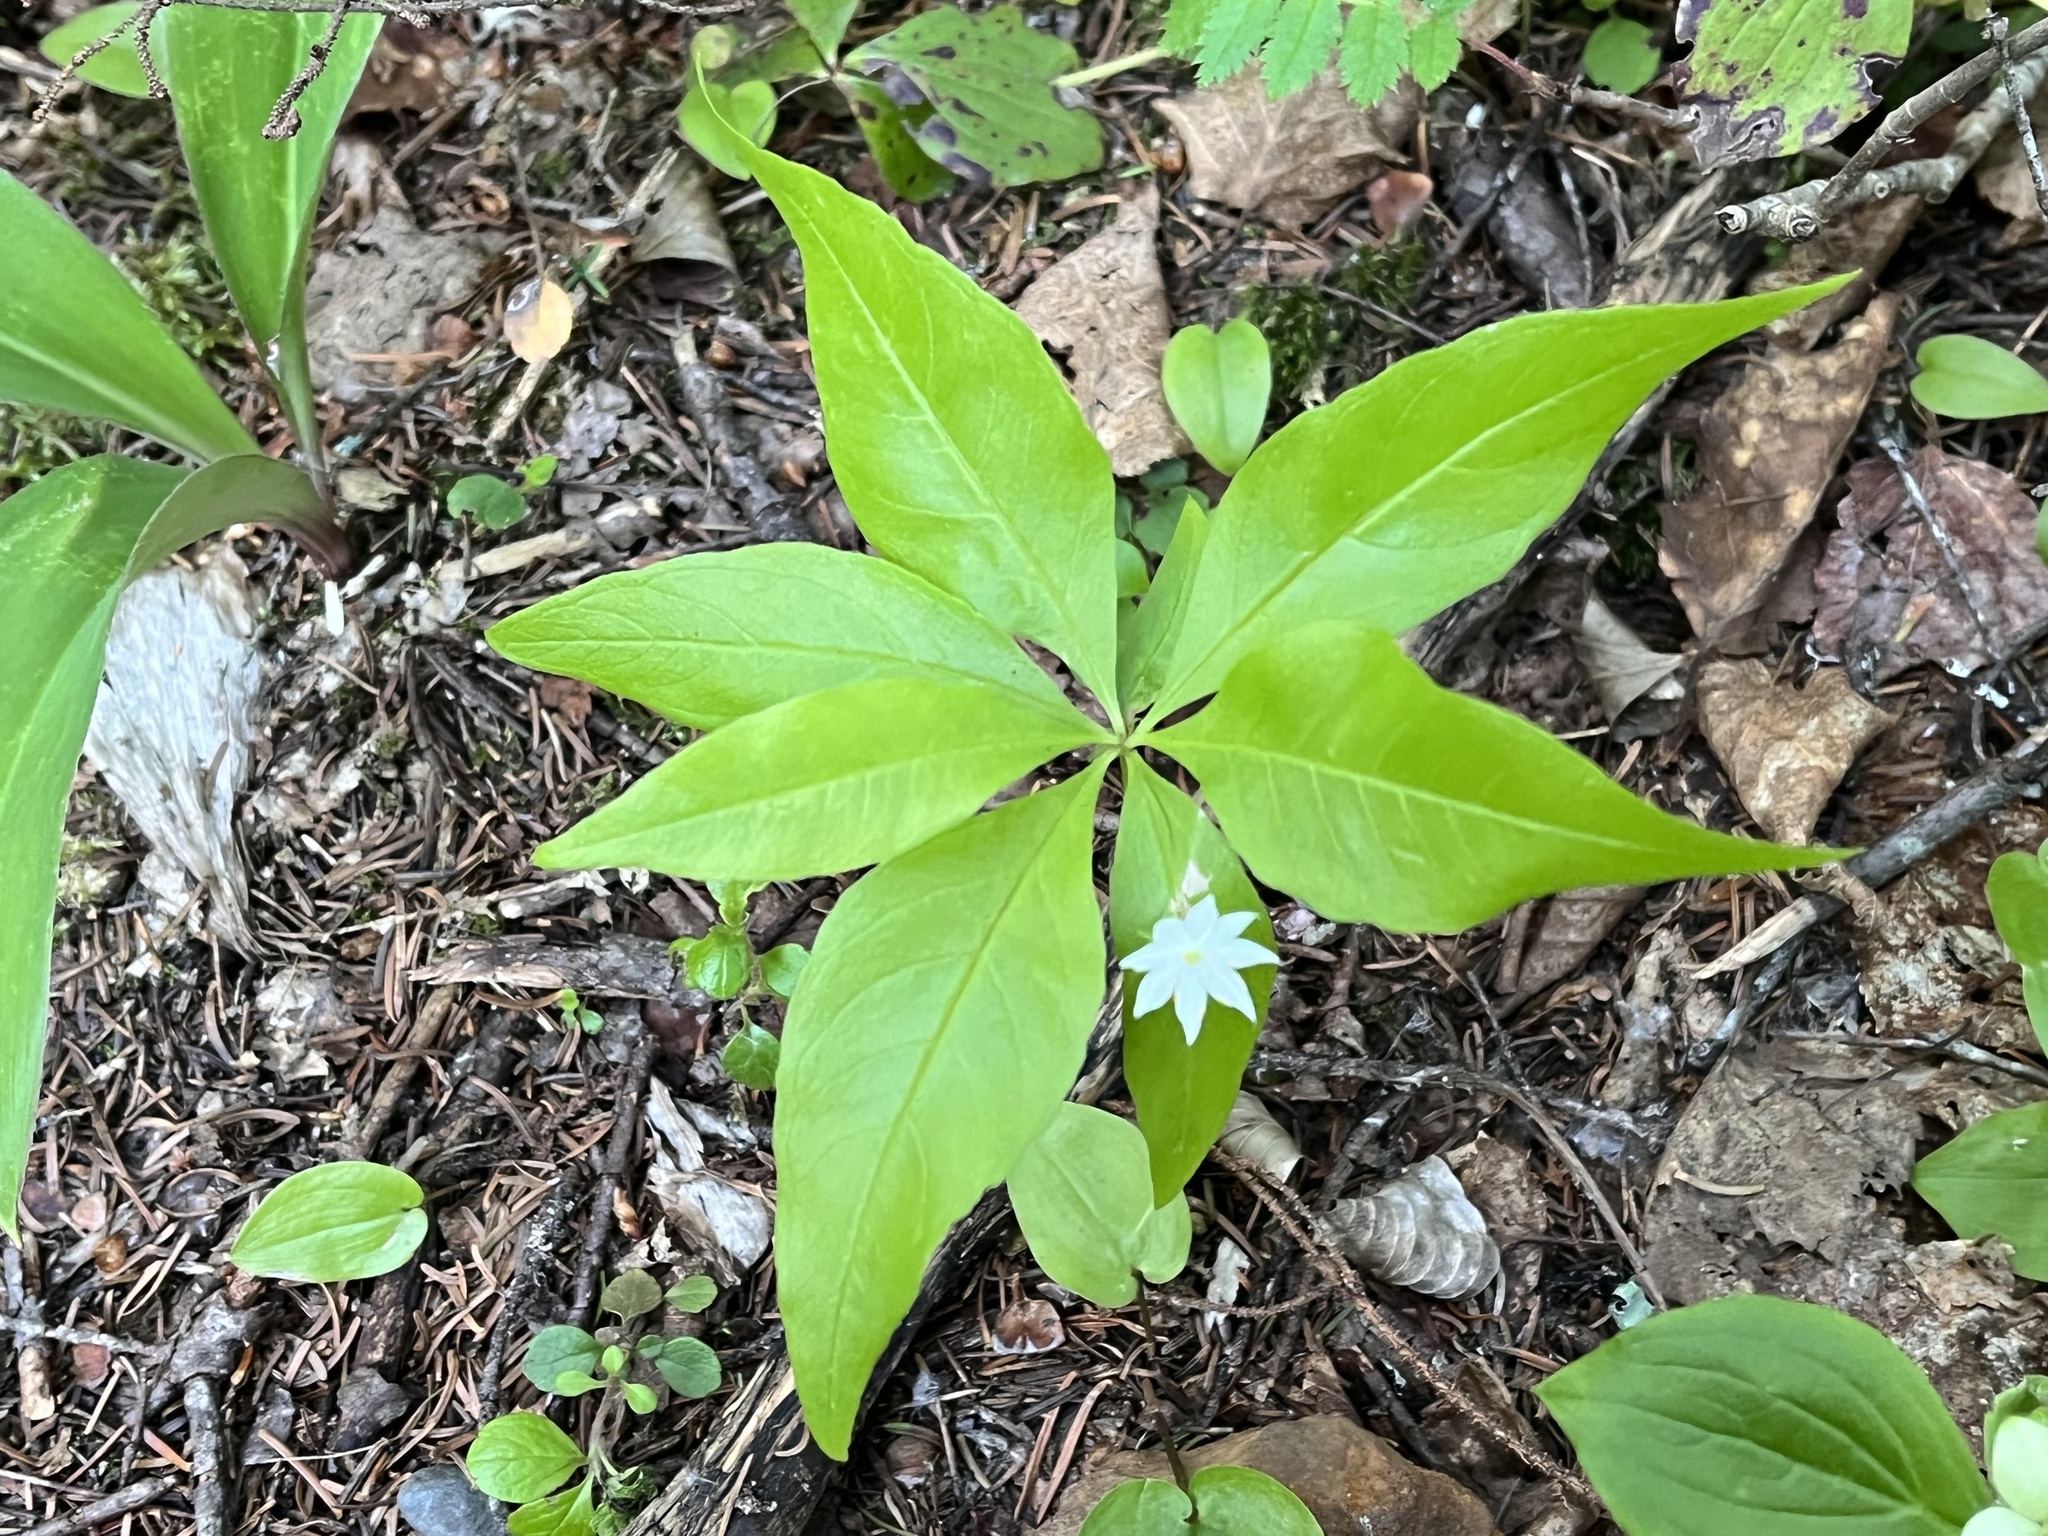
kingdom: Plantae
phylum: Tracheophyta
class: Magnoliopsida
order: Ericales
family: Primulaceae
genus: Lysimachia
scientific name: Lysimachia borealis
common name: American starflower
